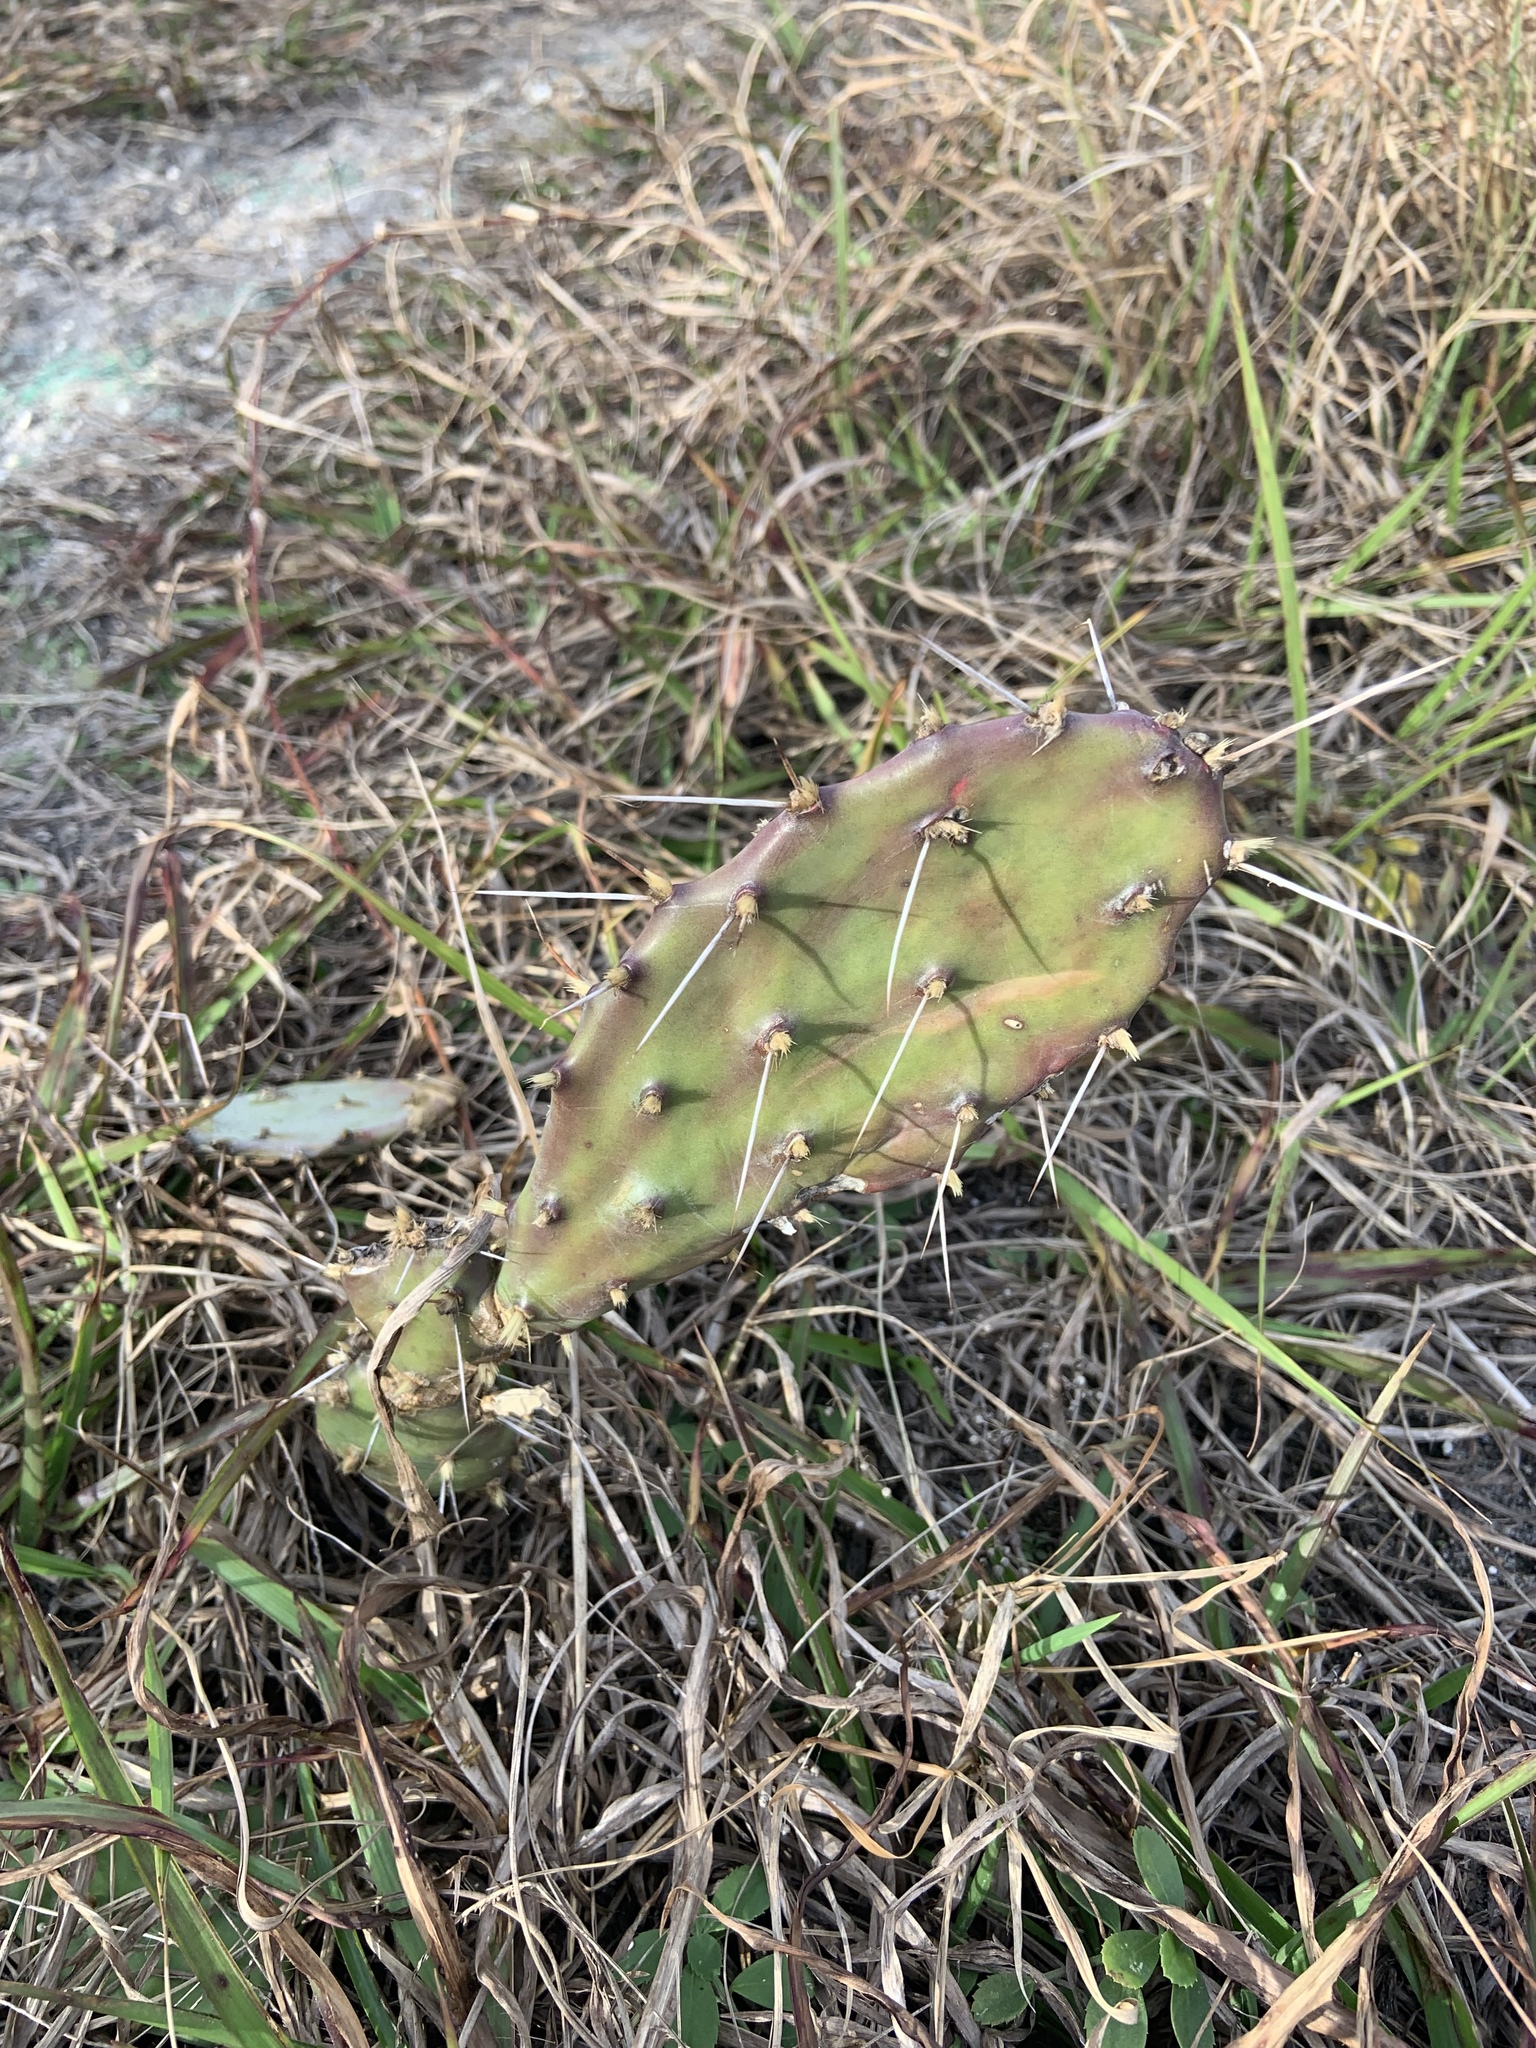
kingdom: Plantae
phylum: Tracheophyta
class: Magnoliopsida
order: Caryophyllales
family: Cactaceae
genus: Opuntia
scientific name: Opuntia humifusa
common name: Eastern prickly-pear
